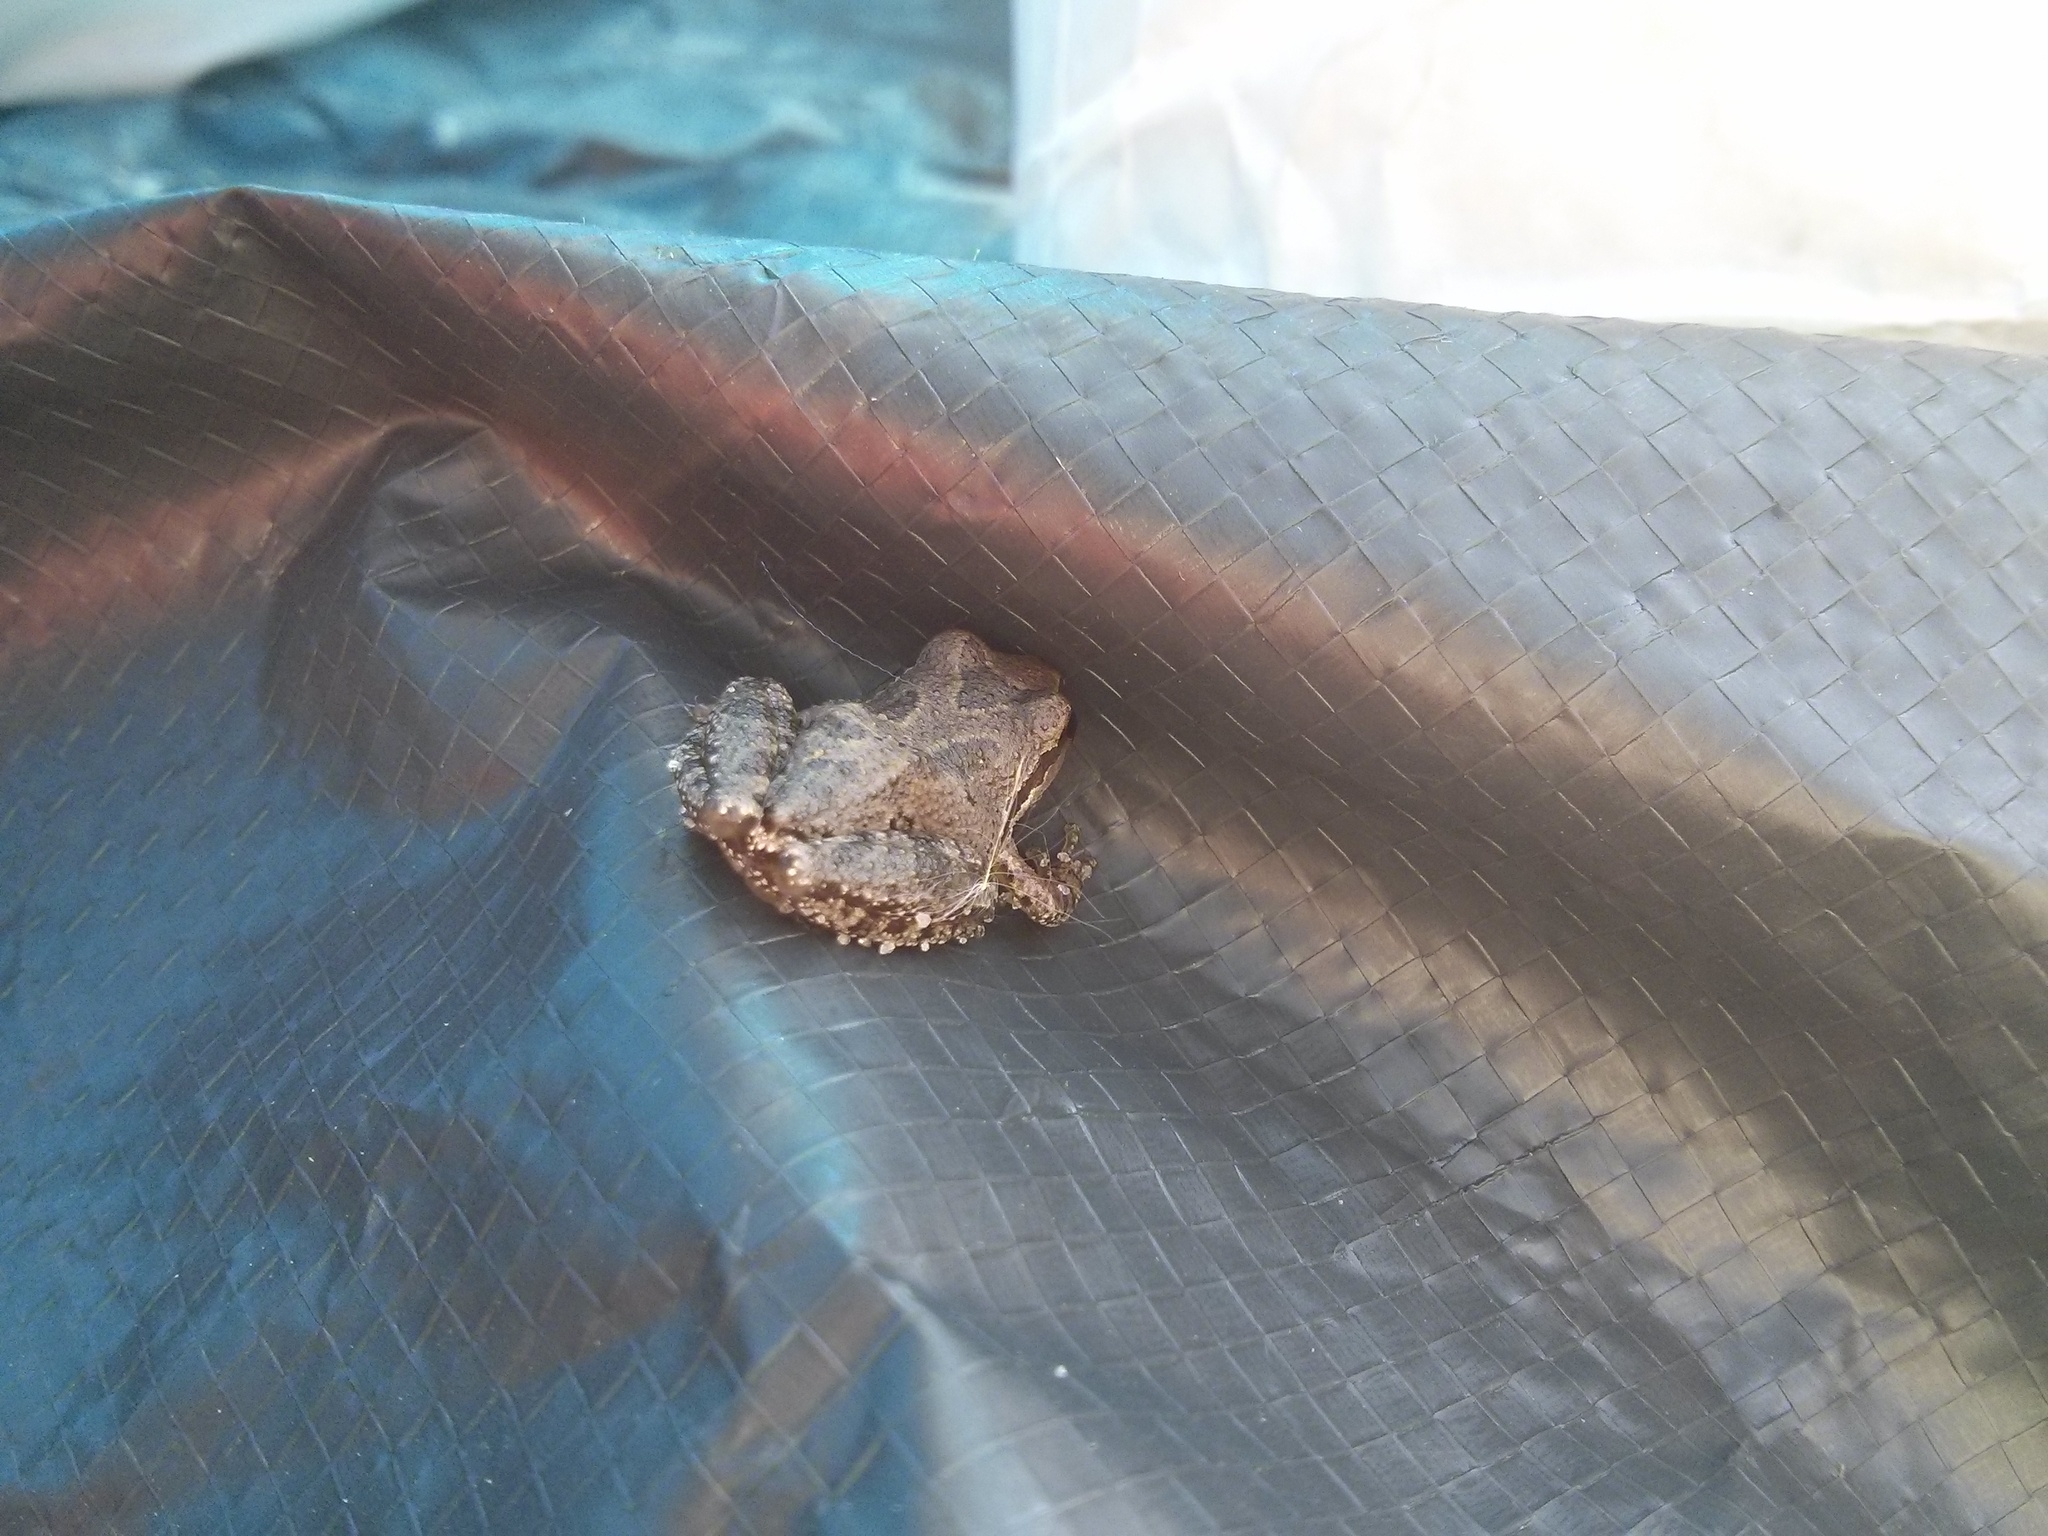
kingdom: Animalia
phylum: Chordata
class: Amphibia
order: Anura
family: Hylidae
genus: Pseudacris
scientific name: Pseudacris regilla
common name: Pacific chorus frog
